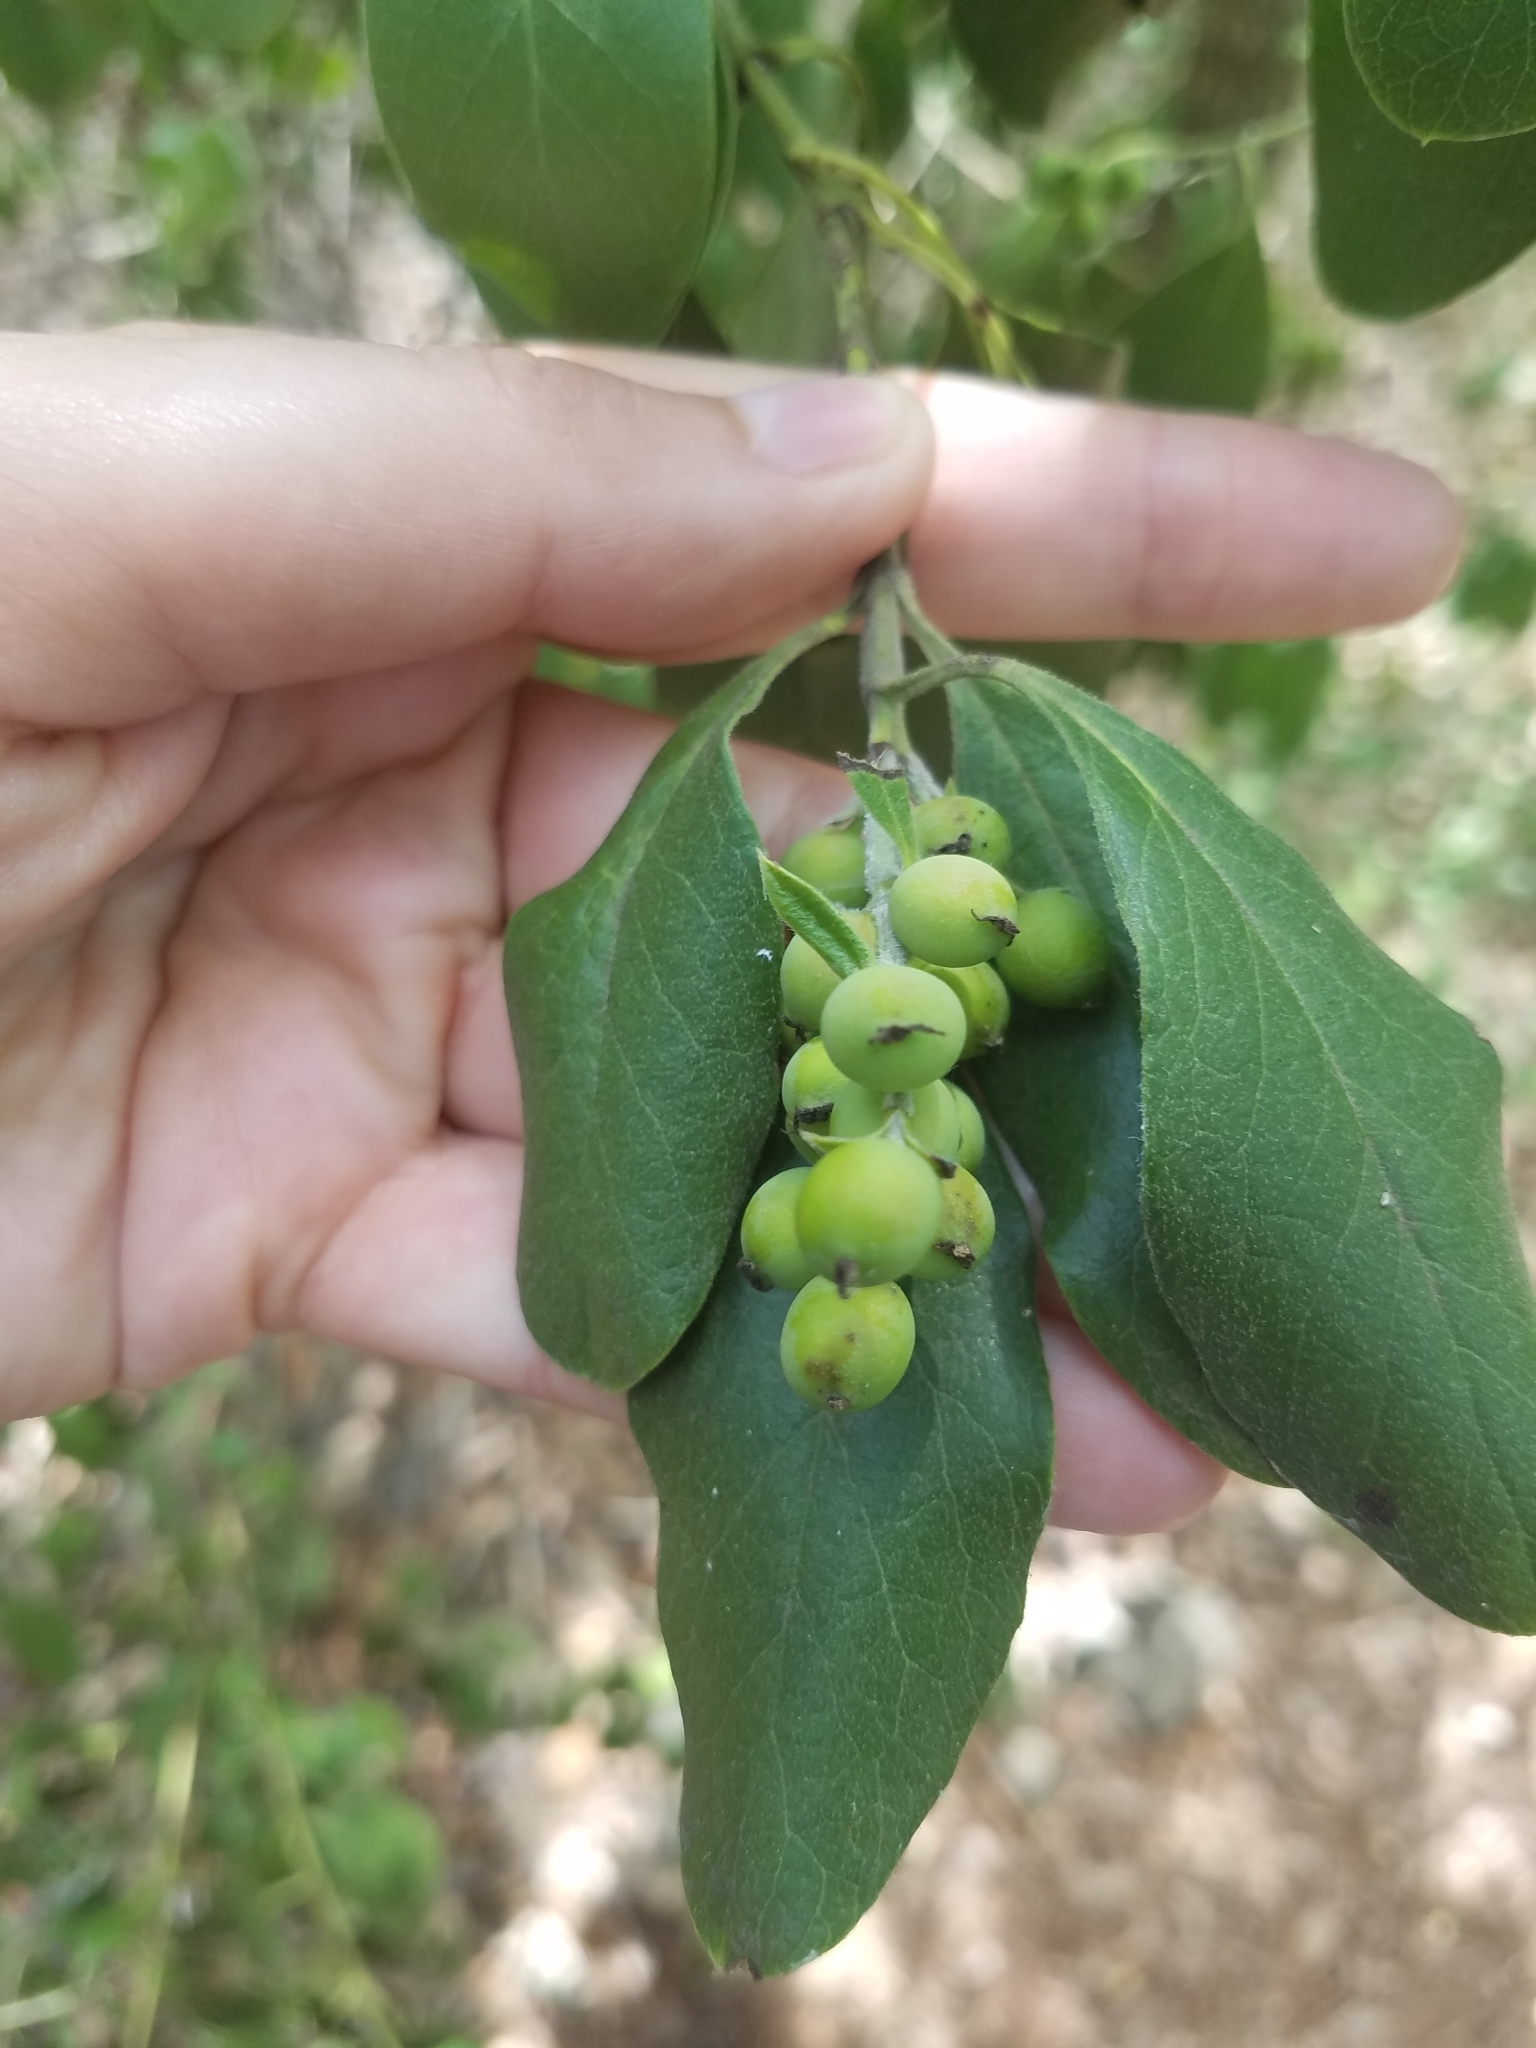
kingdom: Plantae
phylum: Tracheophyta
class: Magnoliopsida
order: Garryales
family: Garryaceae
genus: Garrya
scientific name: Garrya lindheimeri
